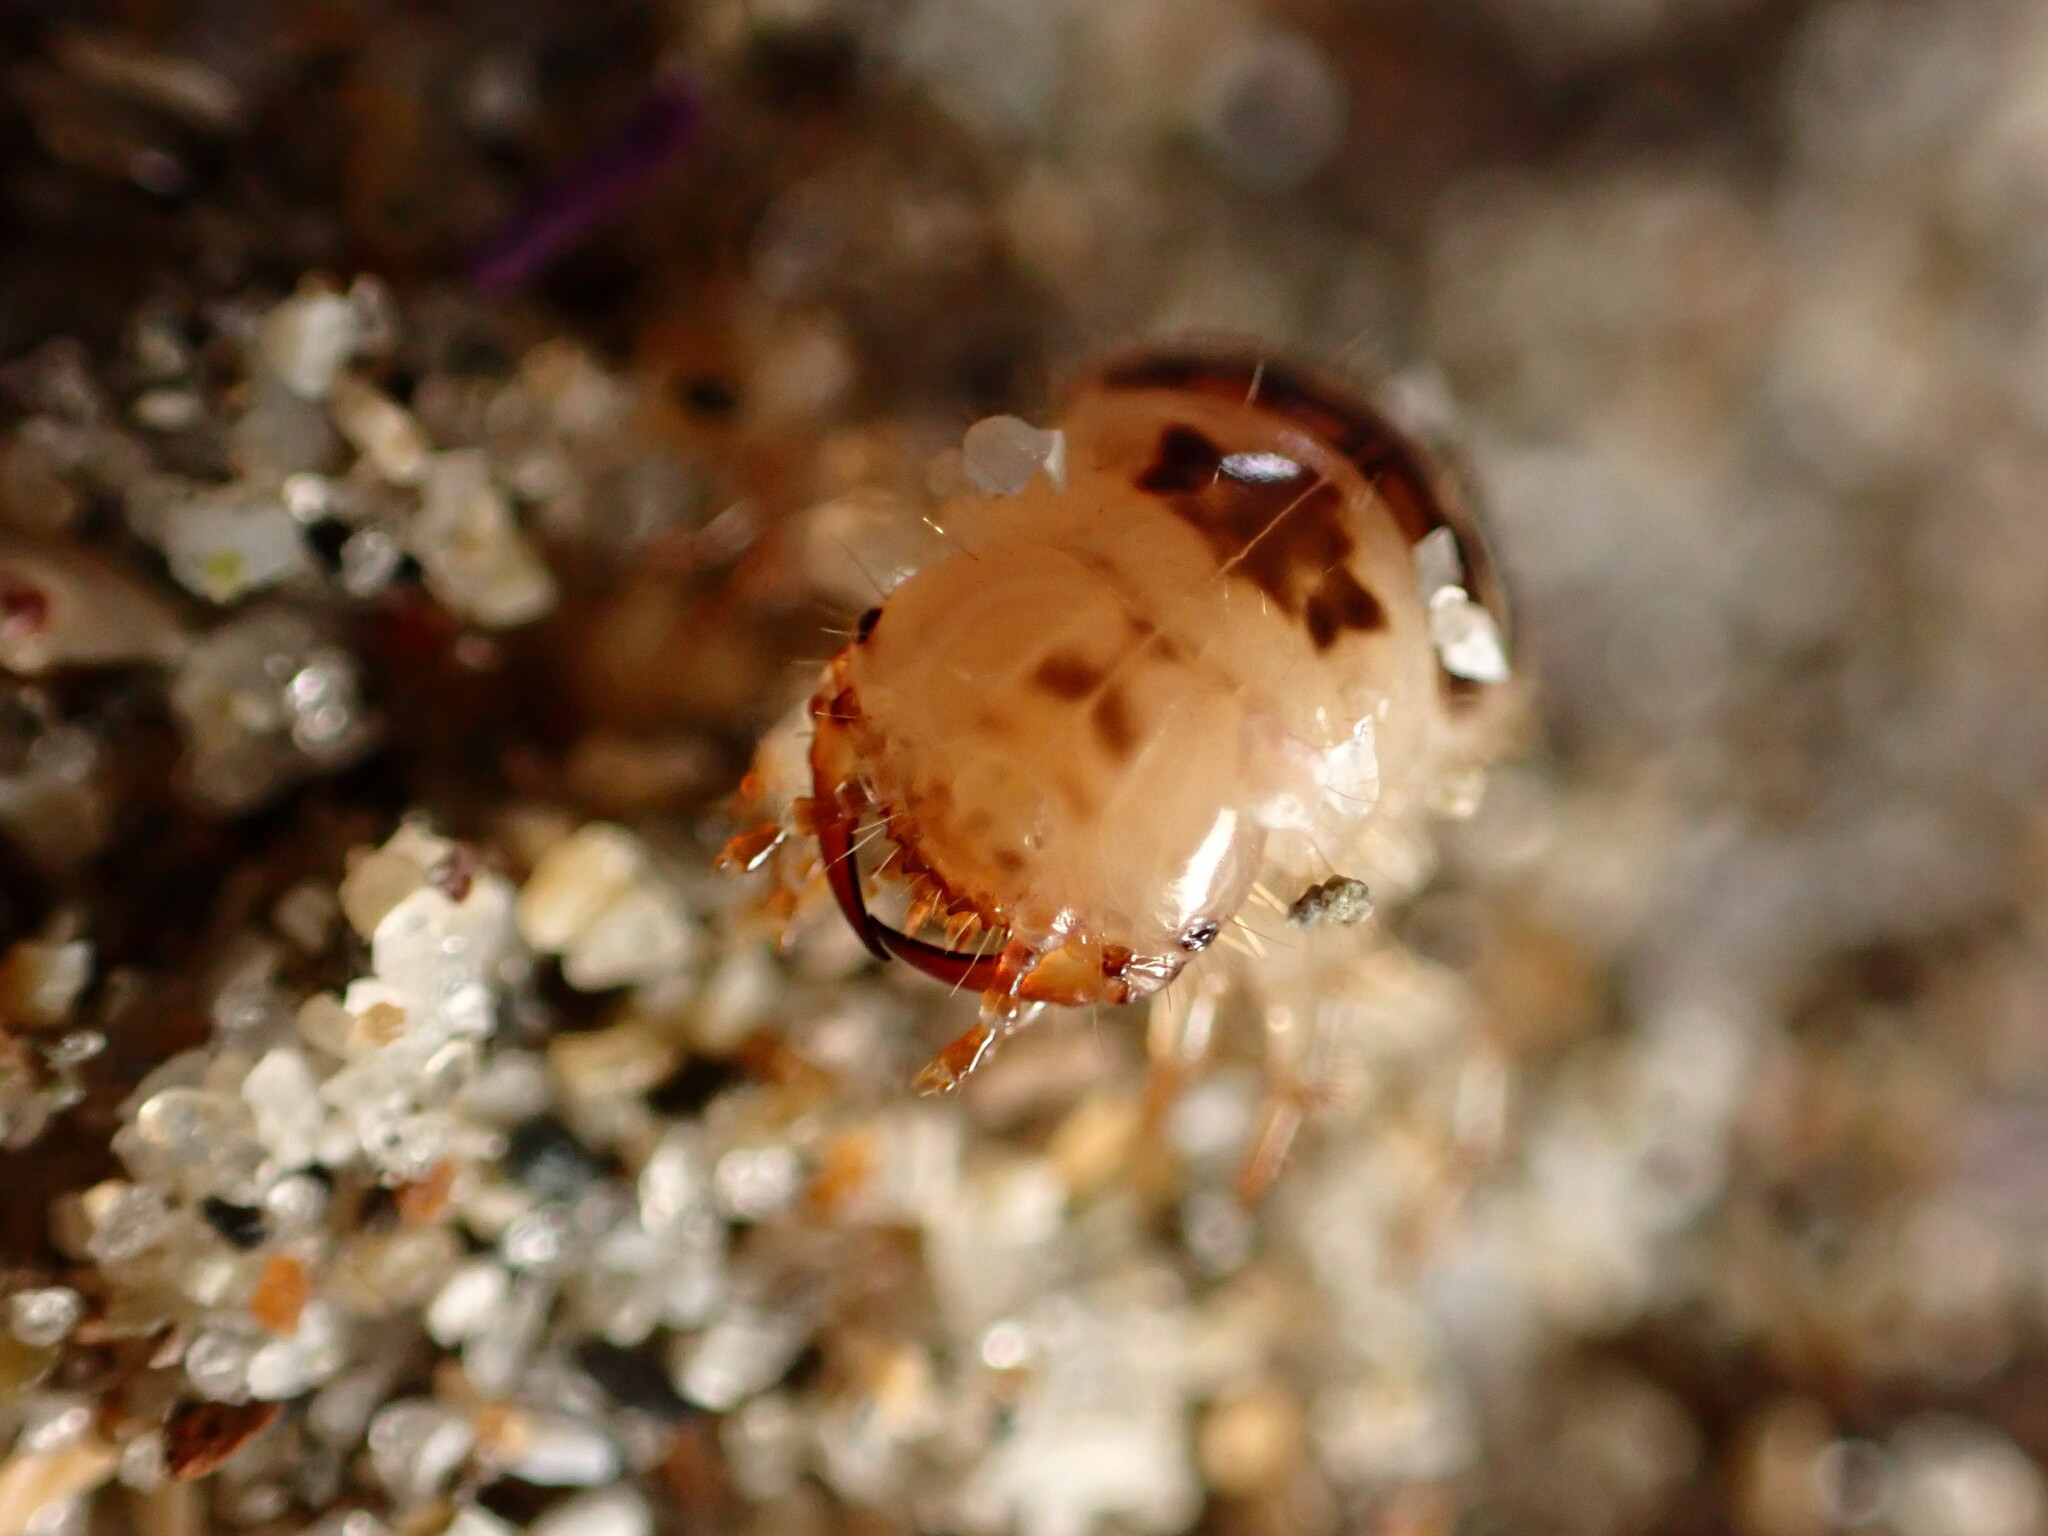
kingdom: Animalia
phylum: Arthropoda
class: Insecta
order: Coleoptera
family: Staphylinidae
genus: Thinopinus
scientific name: Thinopinus pictus
